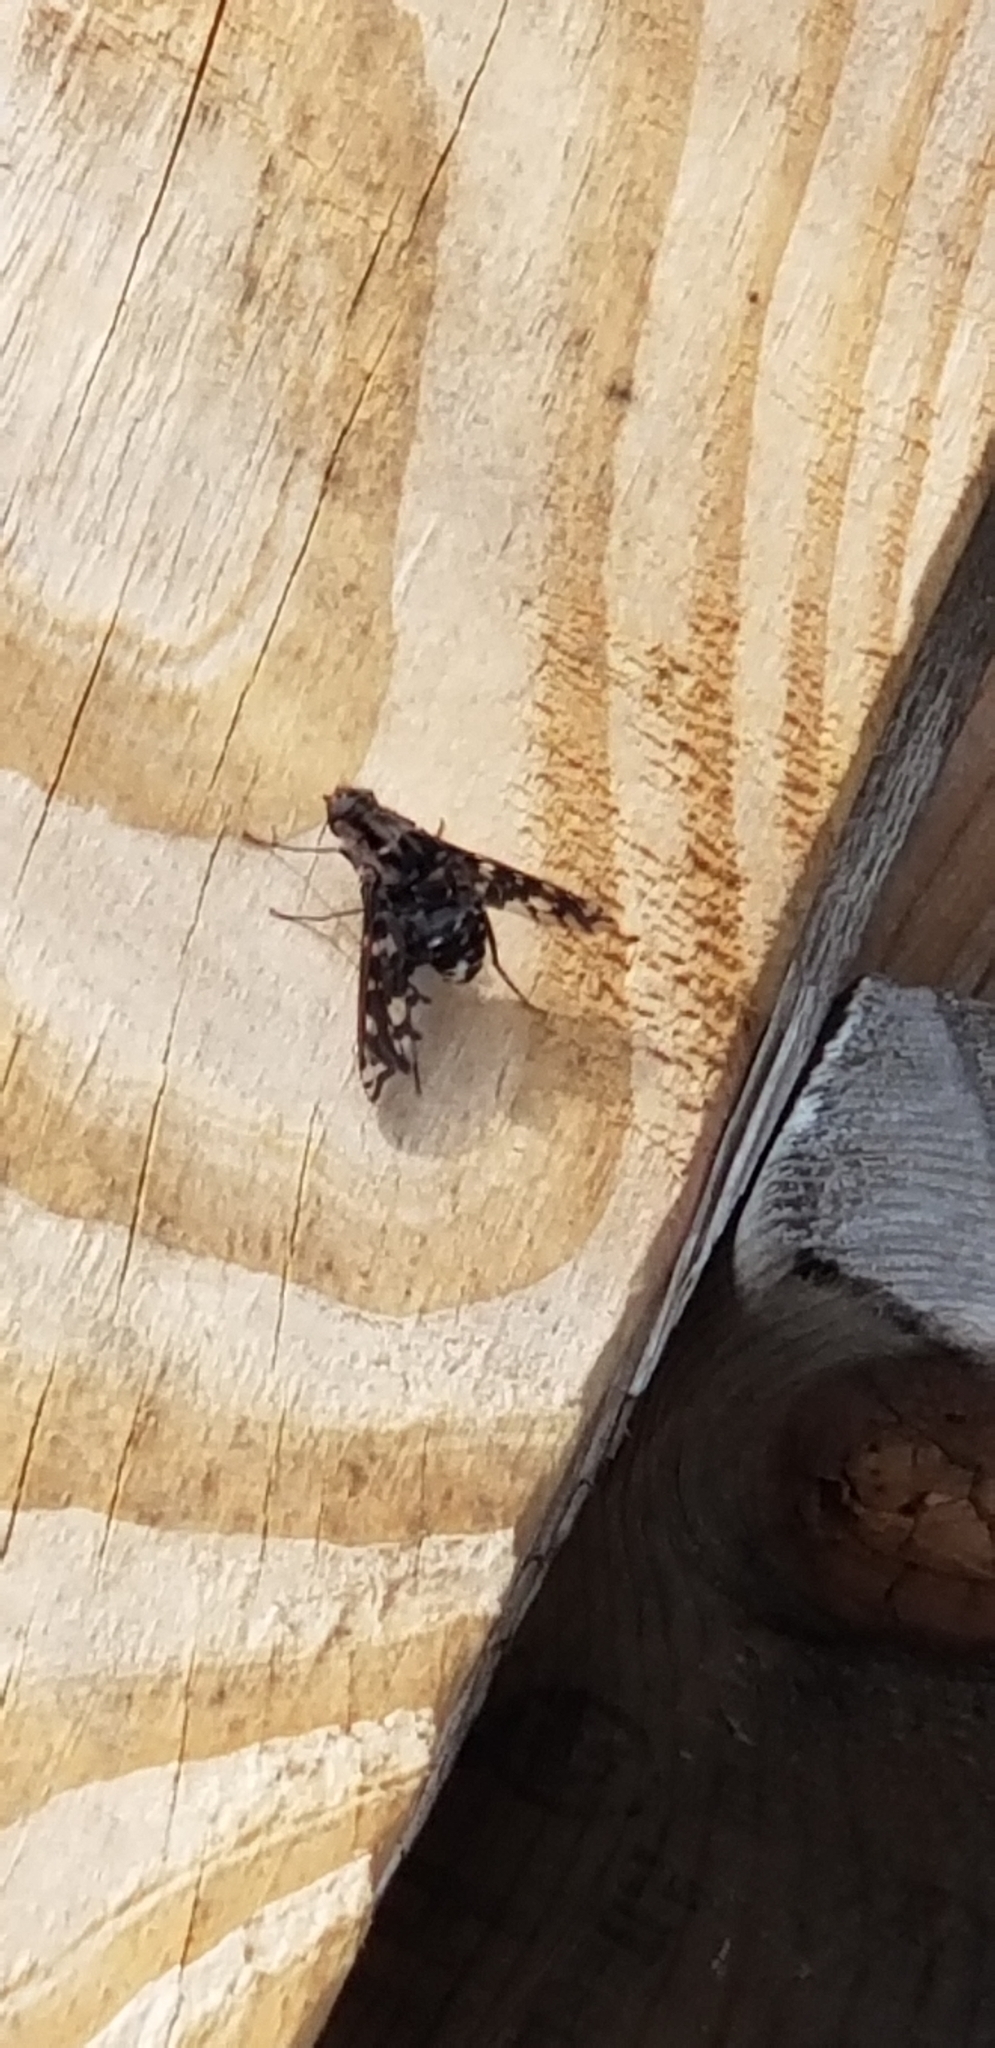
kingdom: Animalia
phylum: Arthropoda
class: Insecta
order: Diptera
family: Bombyliidae
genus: Xenox
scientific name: Xenox tigrinus
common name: Tiger bee fly
